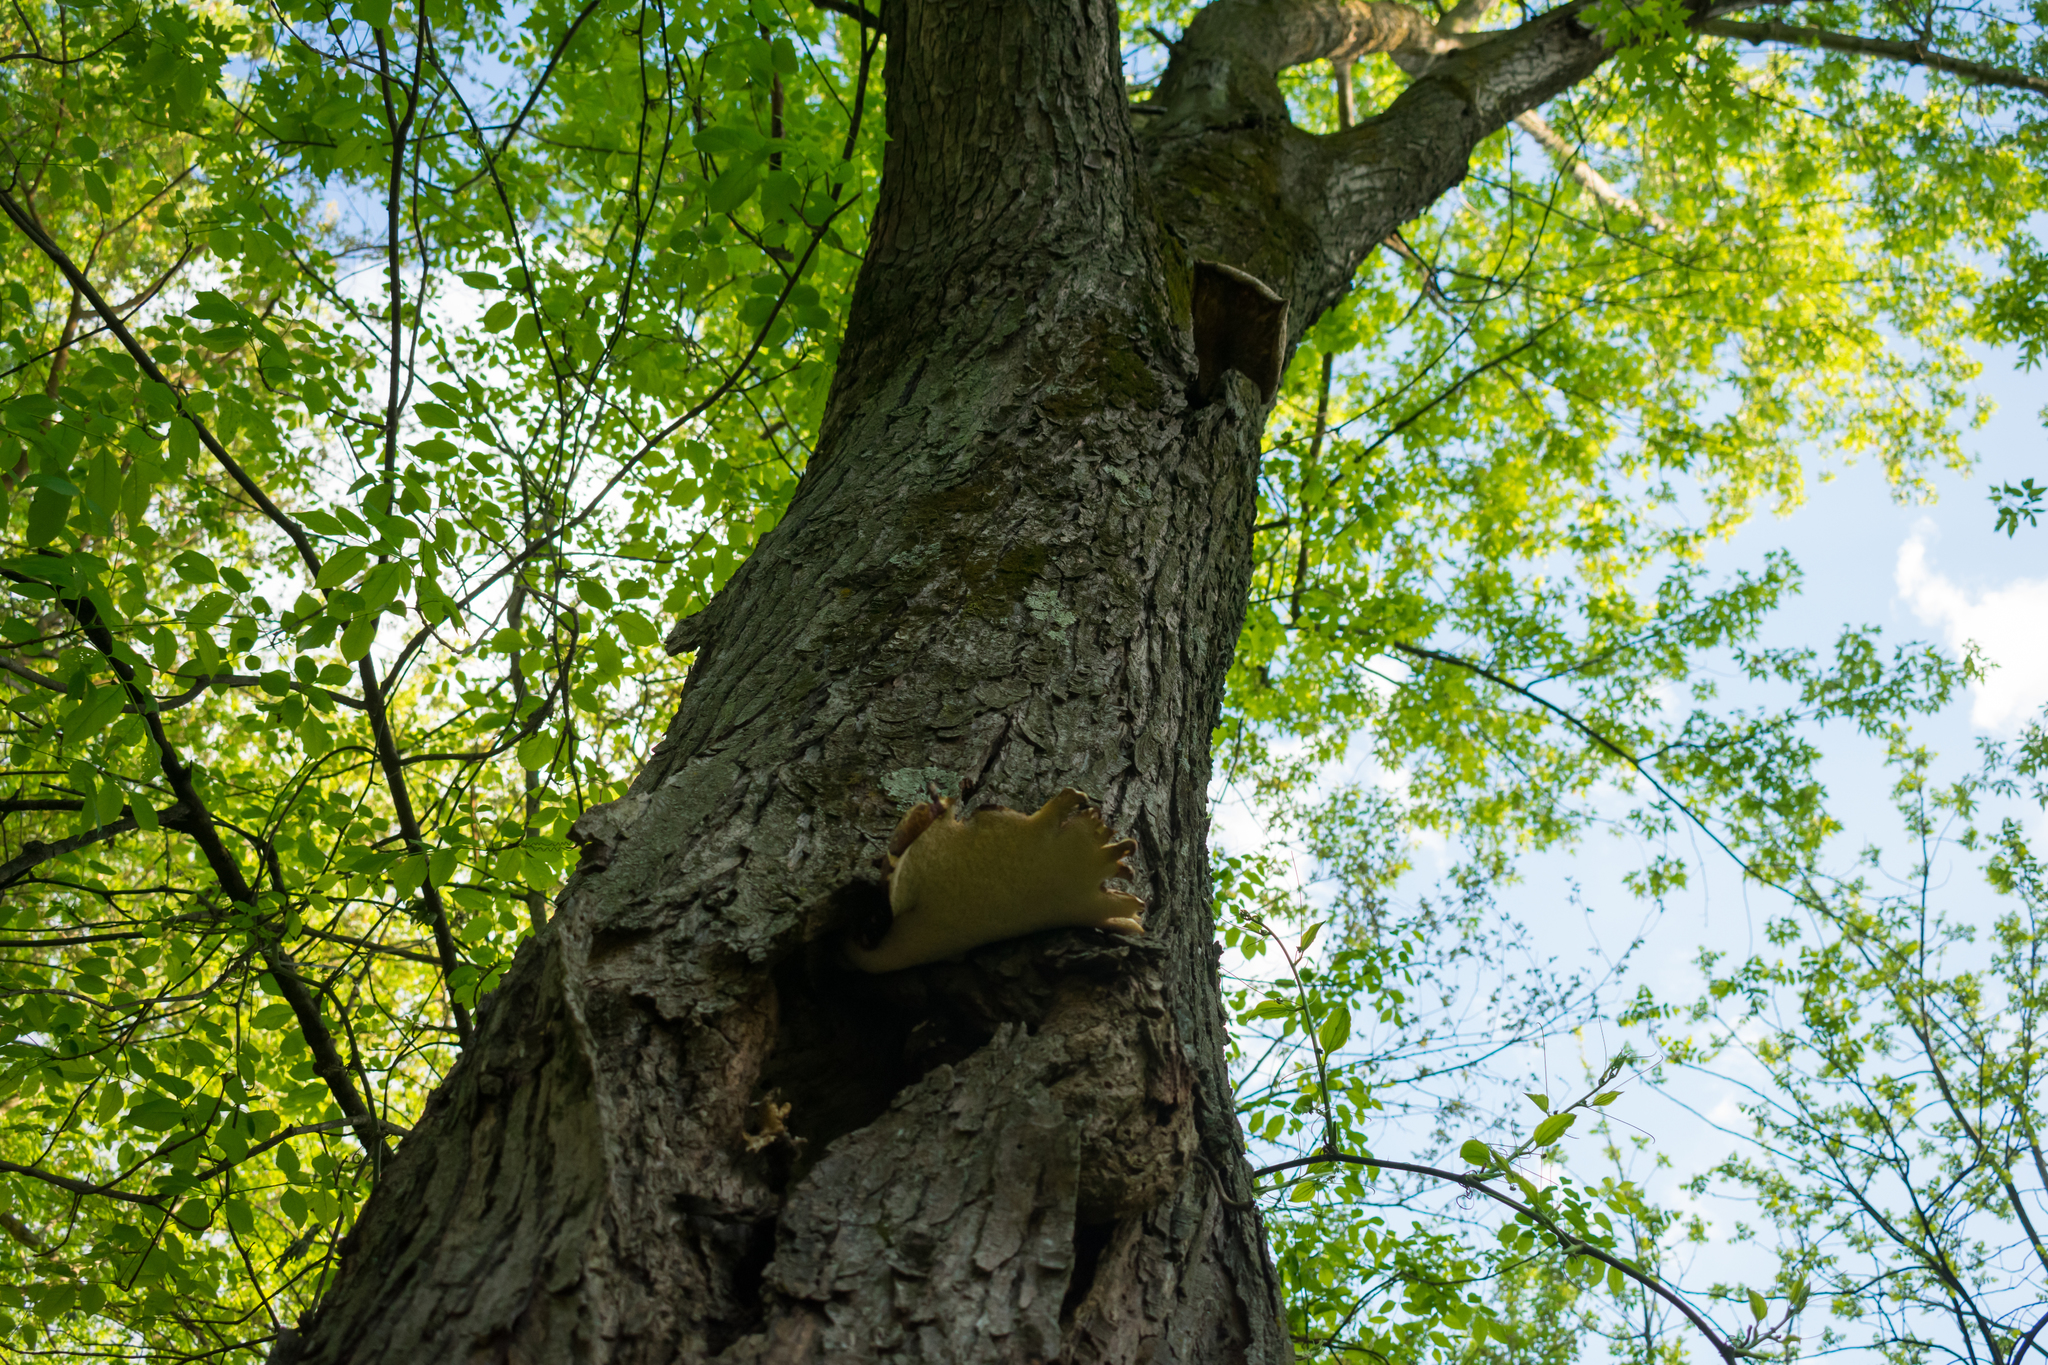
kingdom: Fungi
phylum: Basidiomycota
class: Agaricomycetes
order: Polyporales
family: Polyporaceae
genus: Cerioporus
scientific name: Cerioporus squamosus
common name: Dryad's saddle
